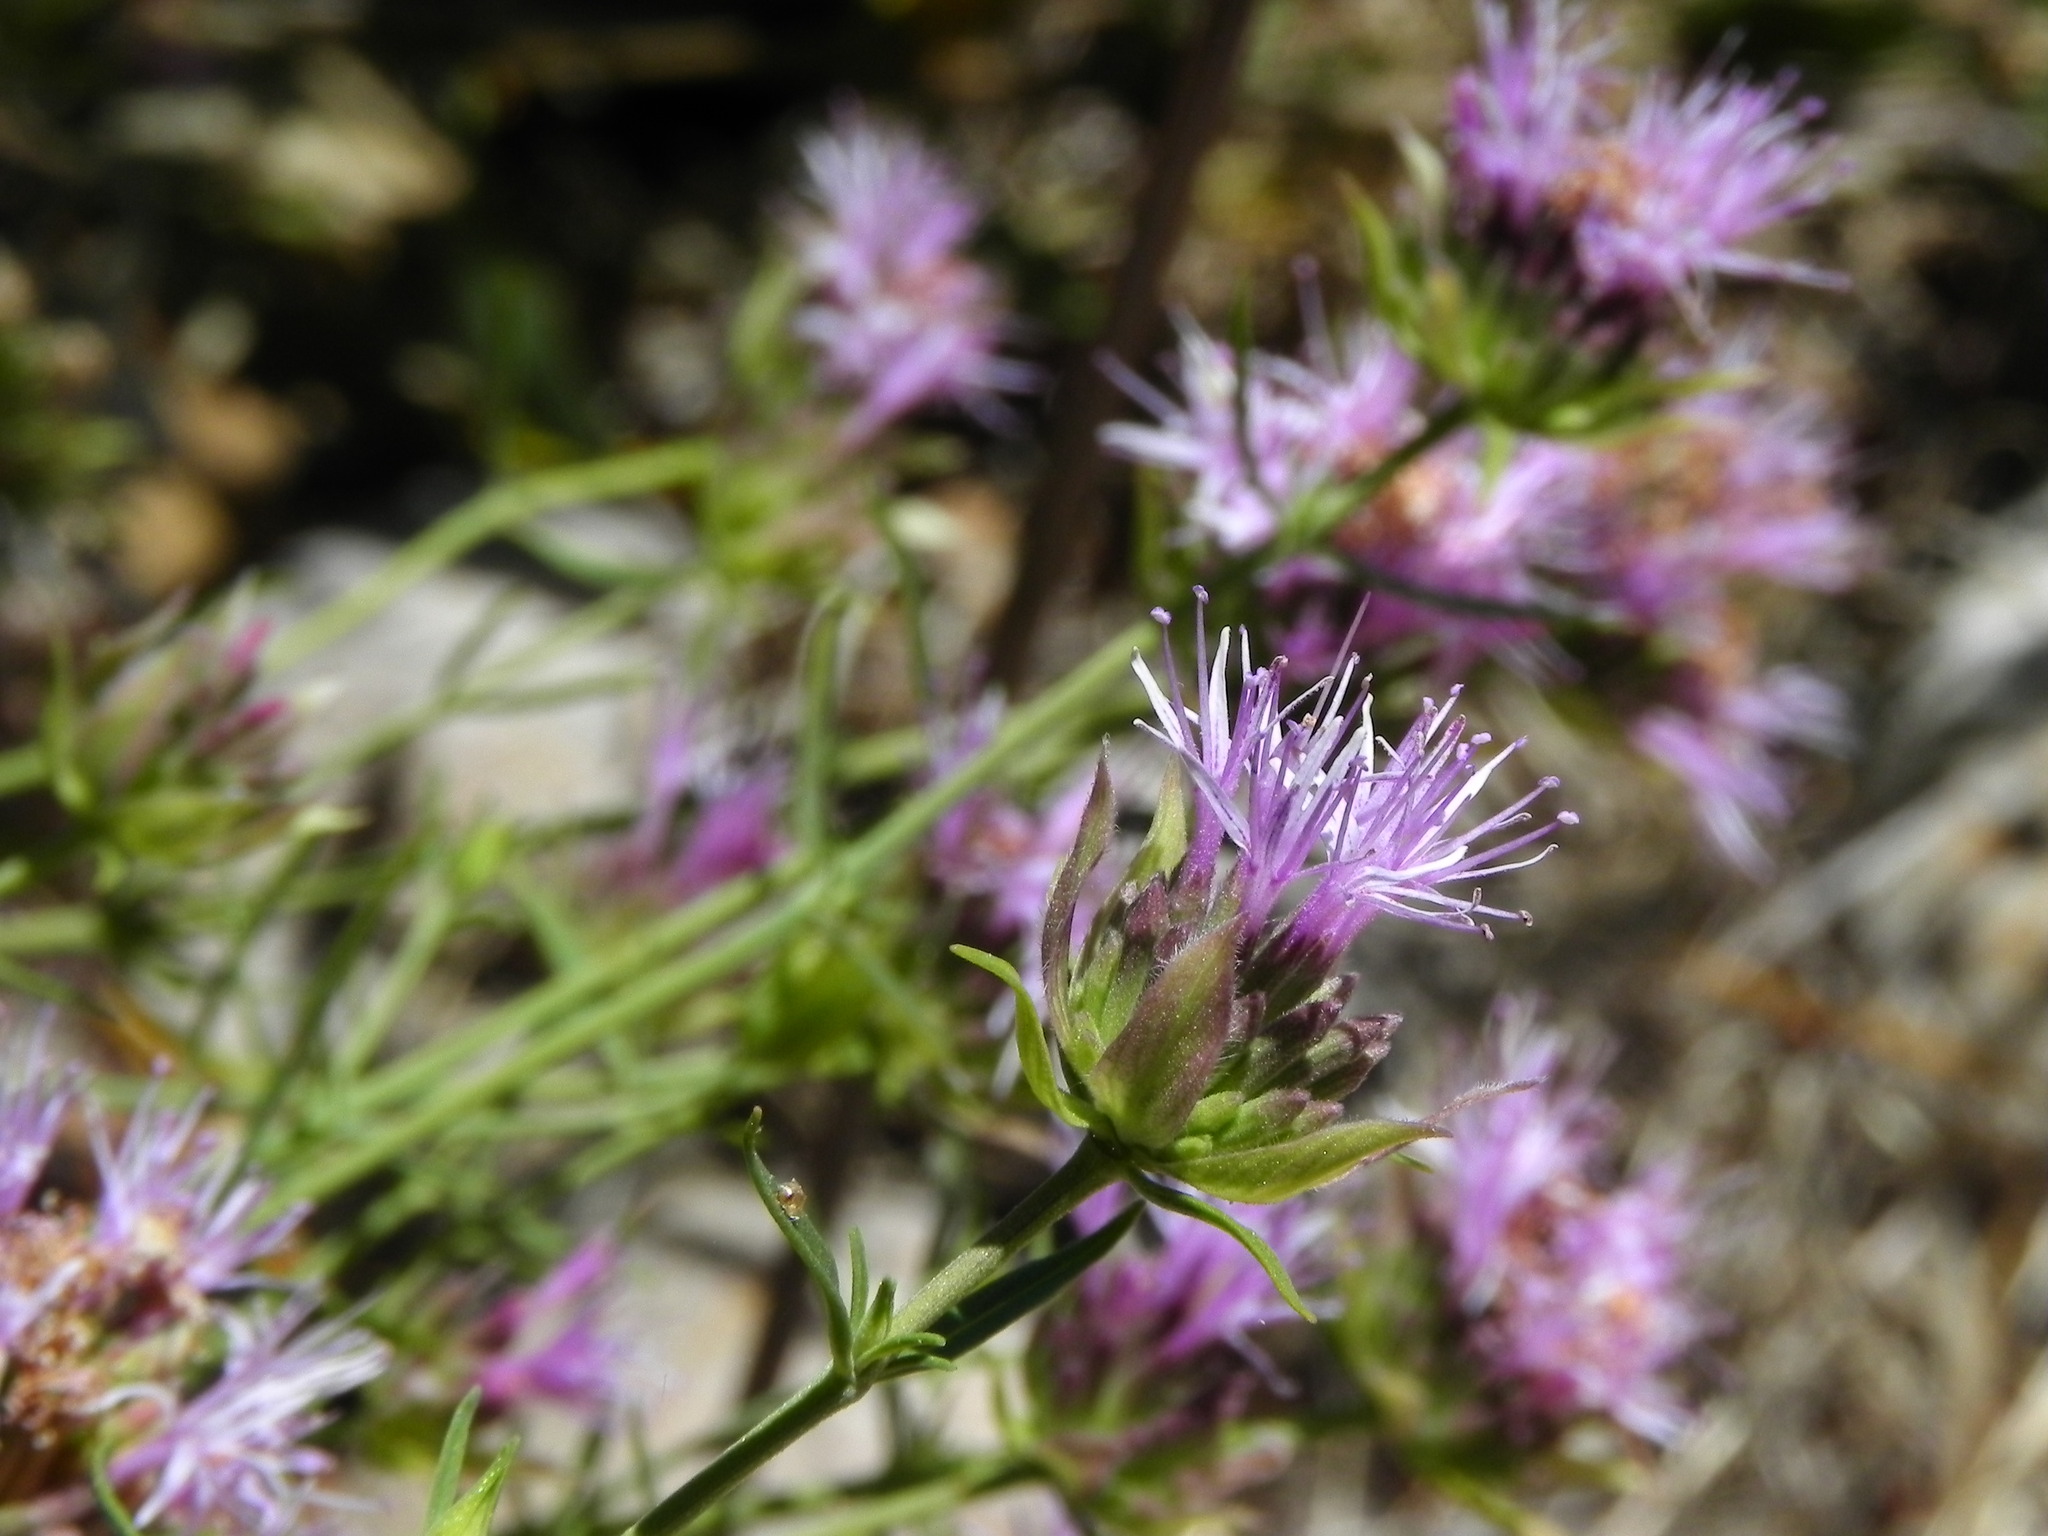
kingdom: Plantae
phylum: Tracheophyta
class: Magnoliopsida
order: Lamiales
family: Lamiaceae
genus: Monardella
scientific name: Monardella viminea
